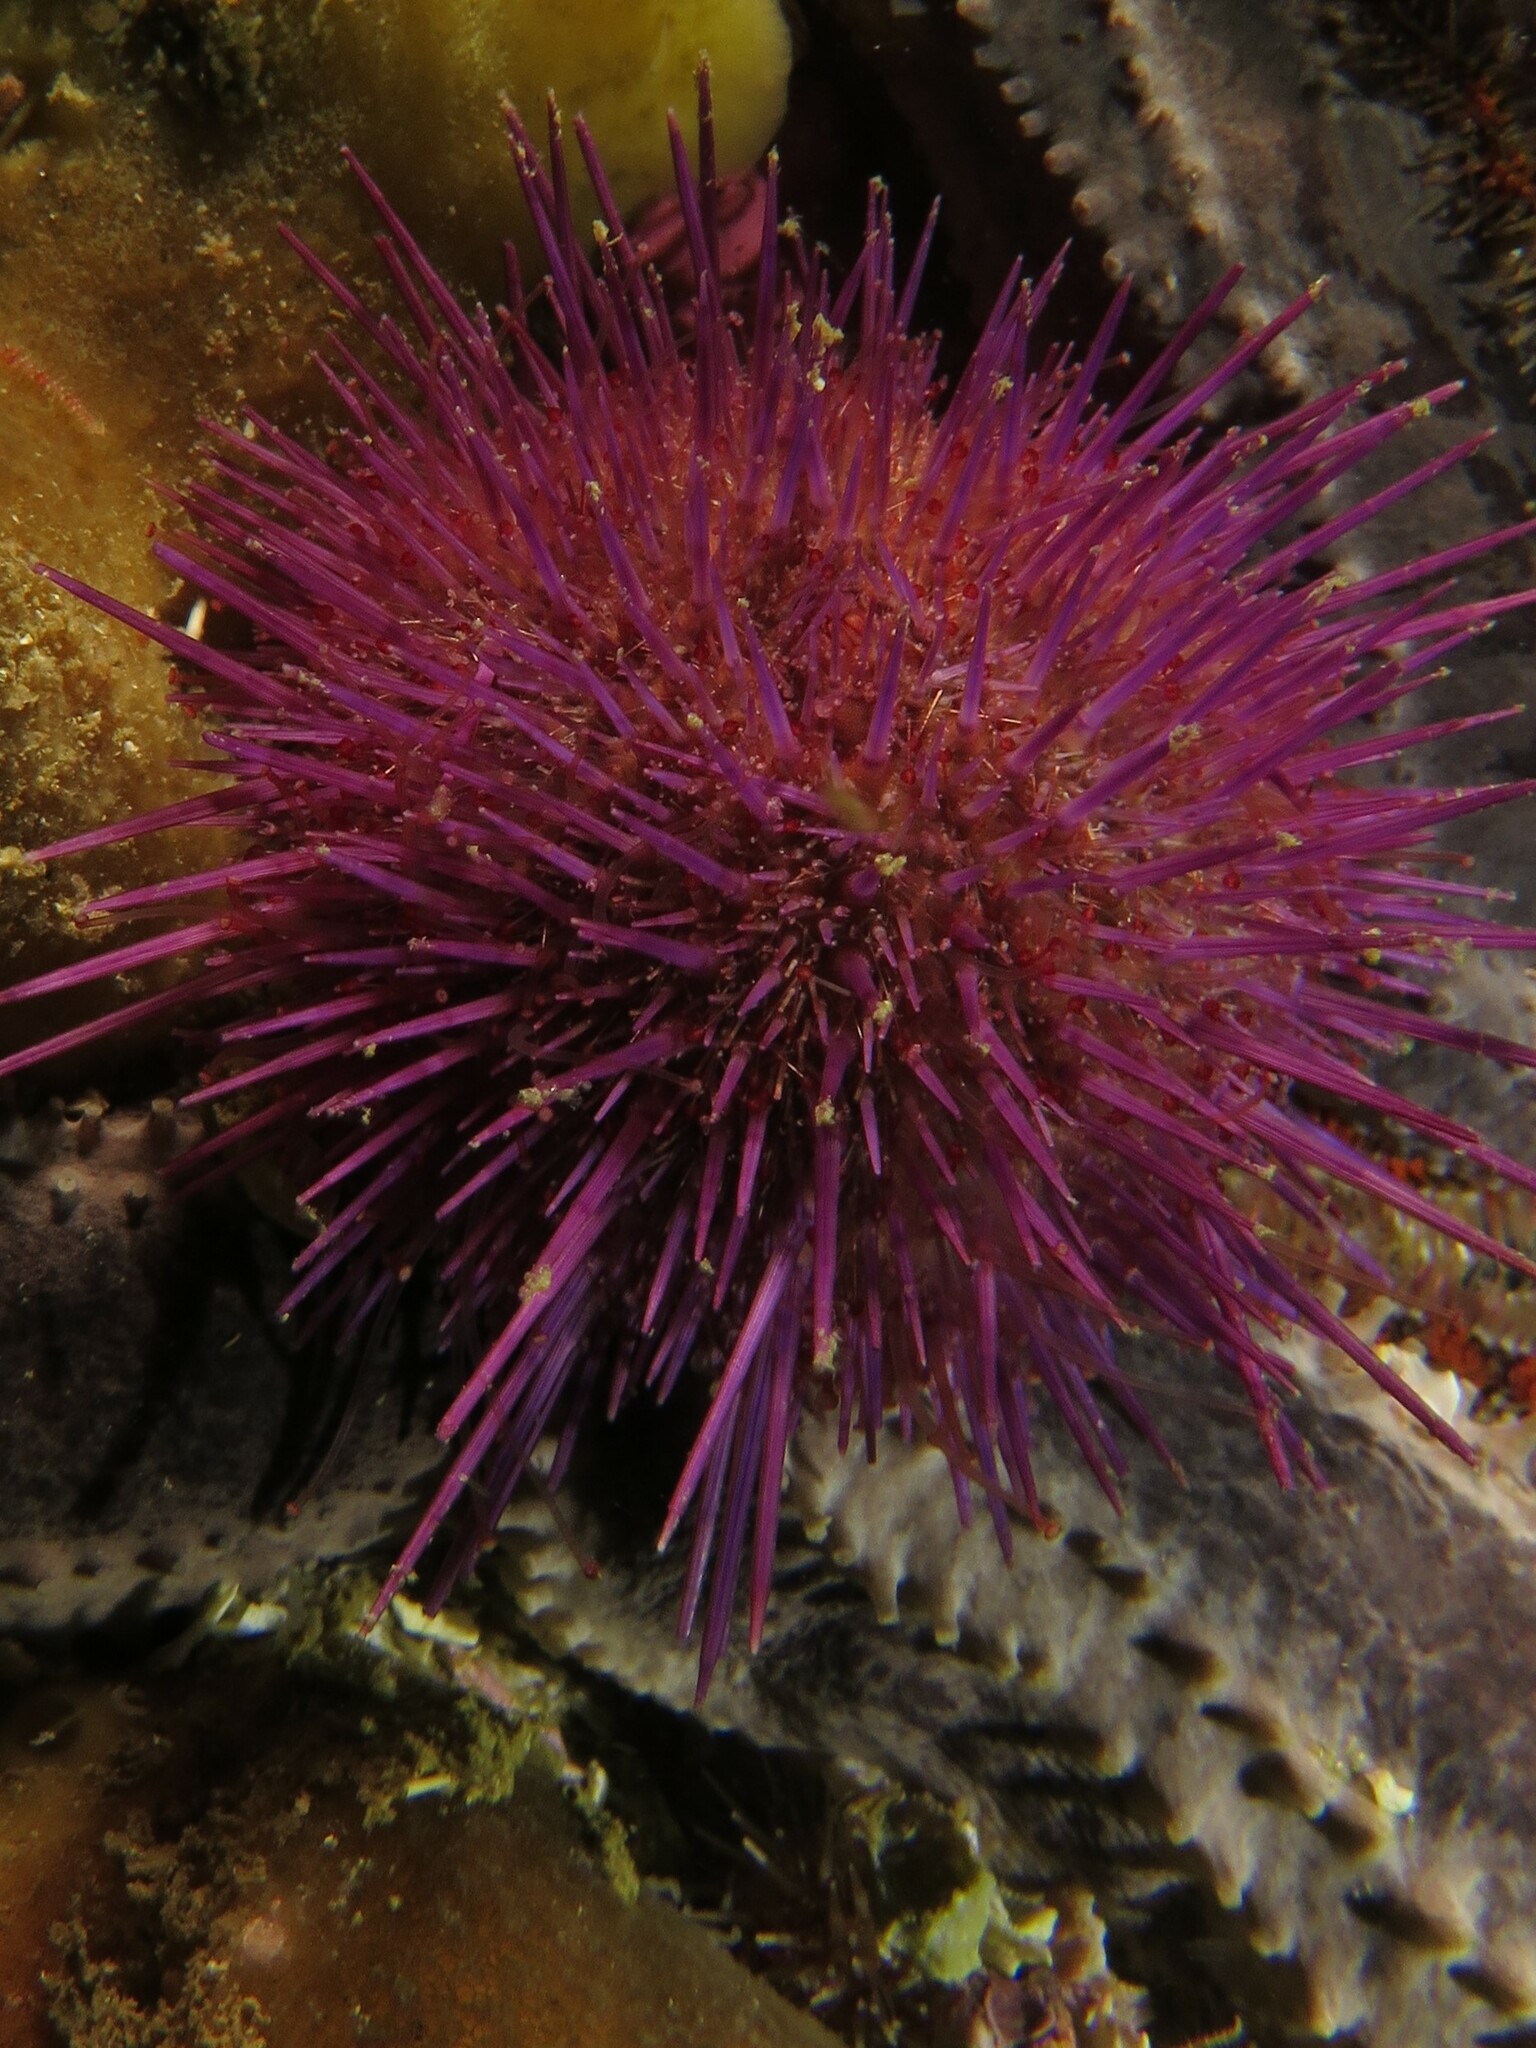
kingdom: Animalia
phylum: Echinodermata
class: Echinoidea
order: Camarodonta
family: Parechinidae
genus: Parechinus
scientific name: Parechinus angulosus
